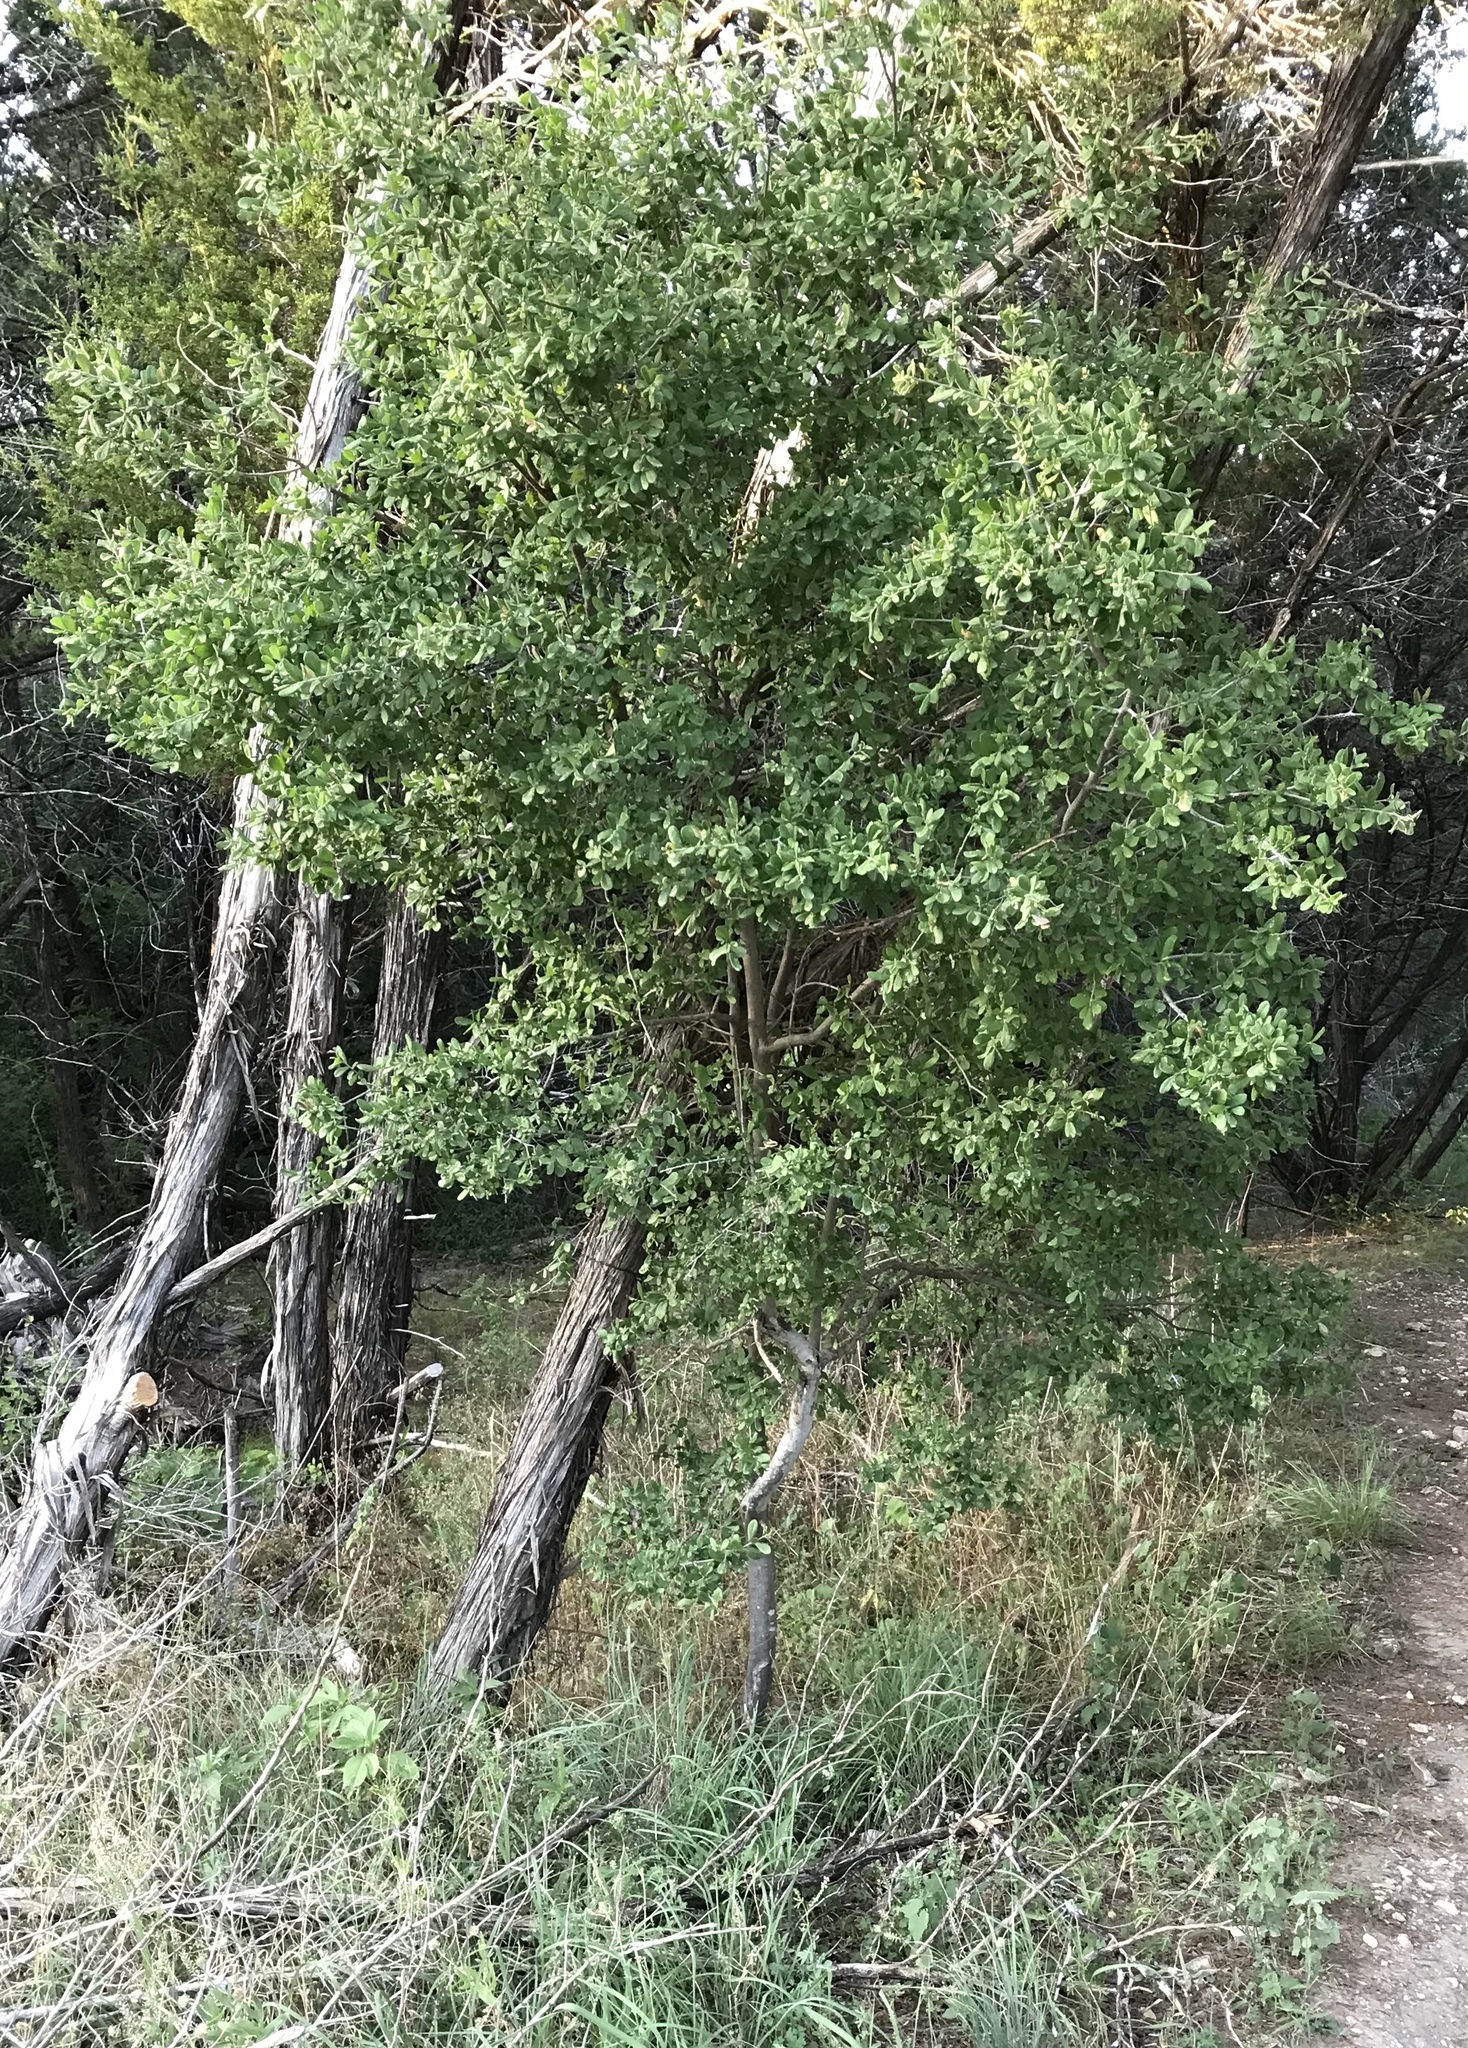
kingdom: Plantae
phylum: Tracheophyta
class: Magnoliopsida
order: Ericales
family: Ebenaceae
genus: Diospyros
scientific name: Diospyros texana
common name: Texas persimmon
